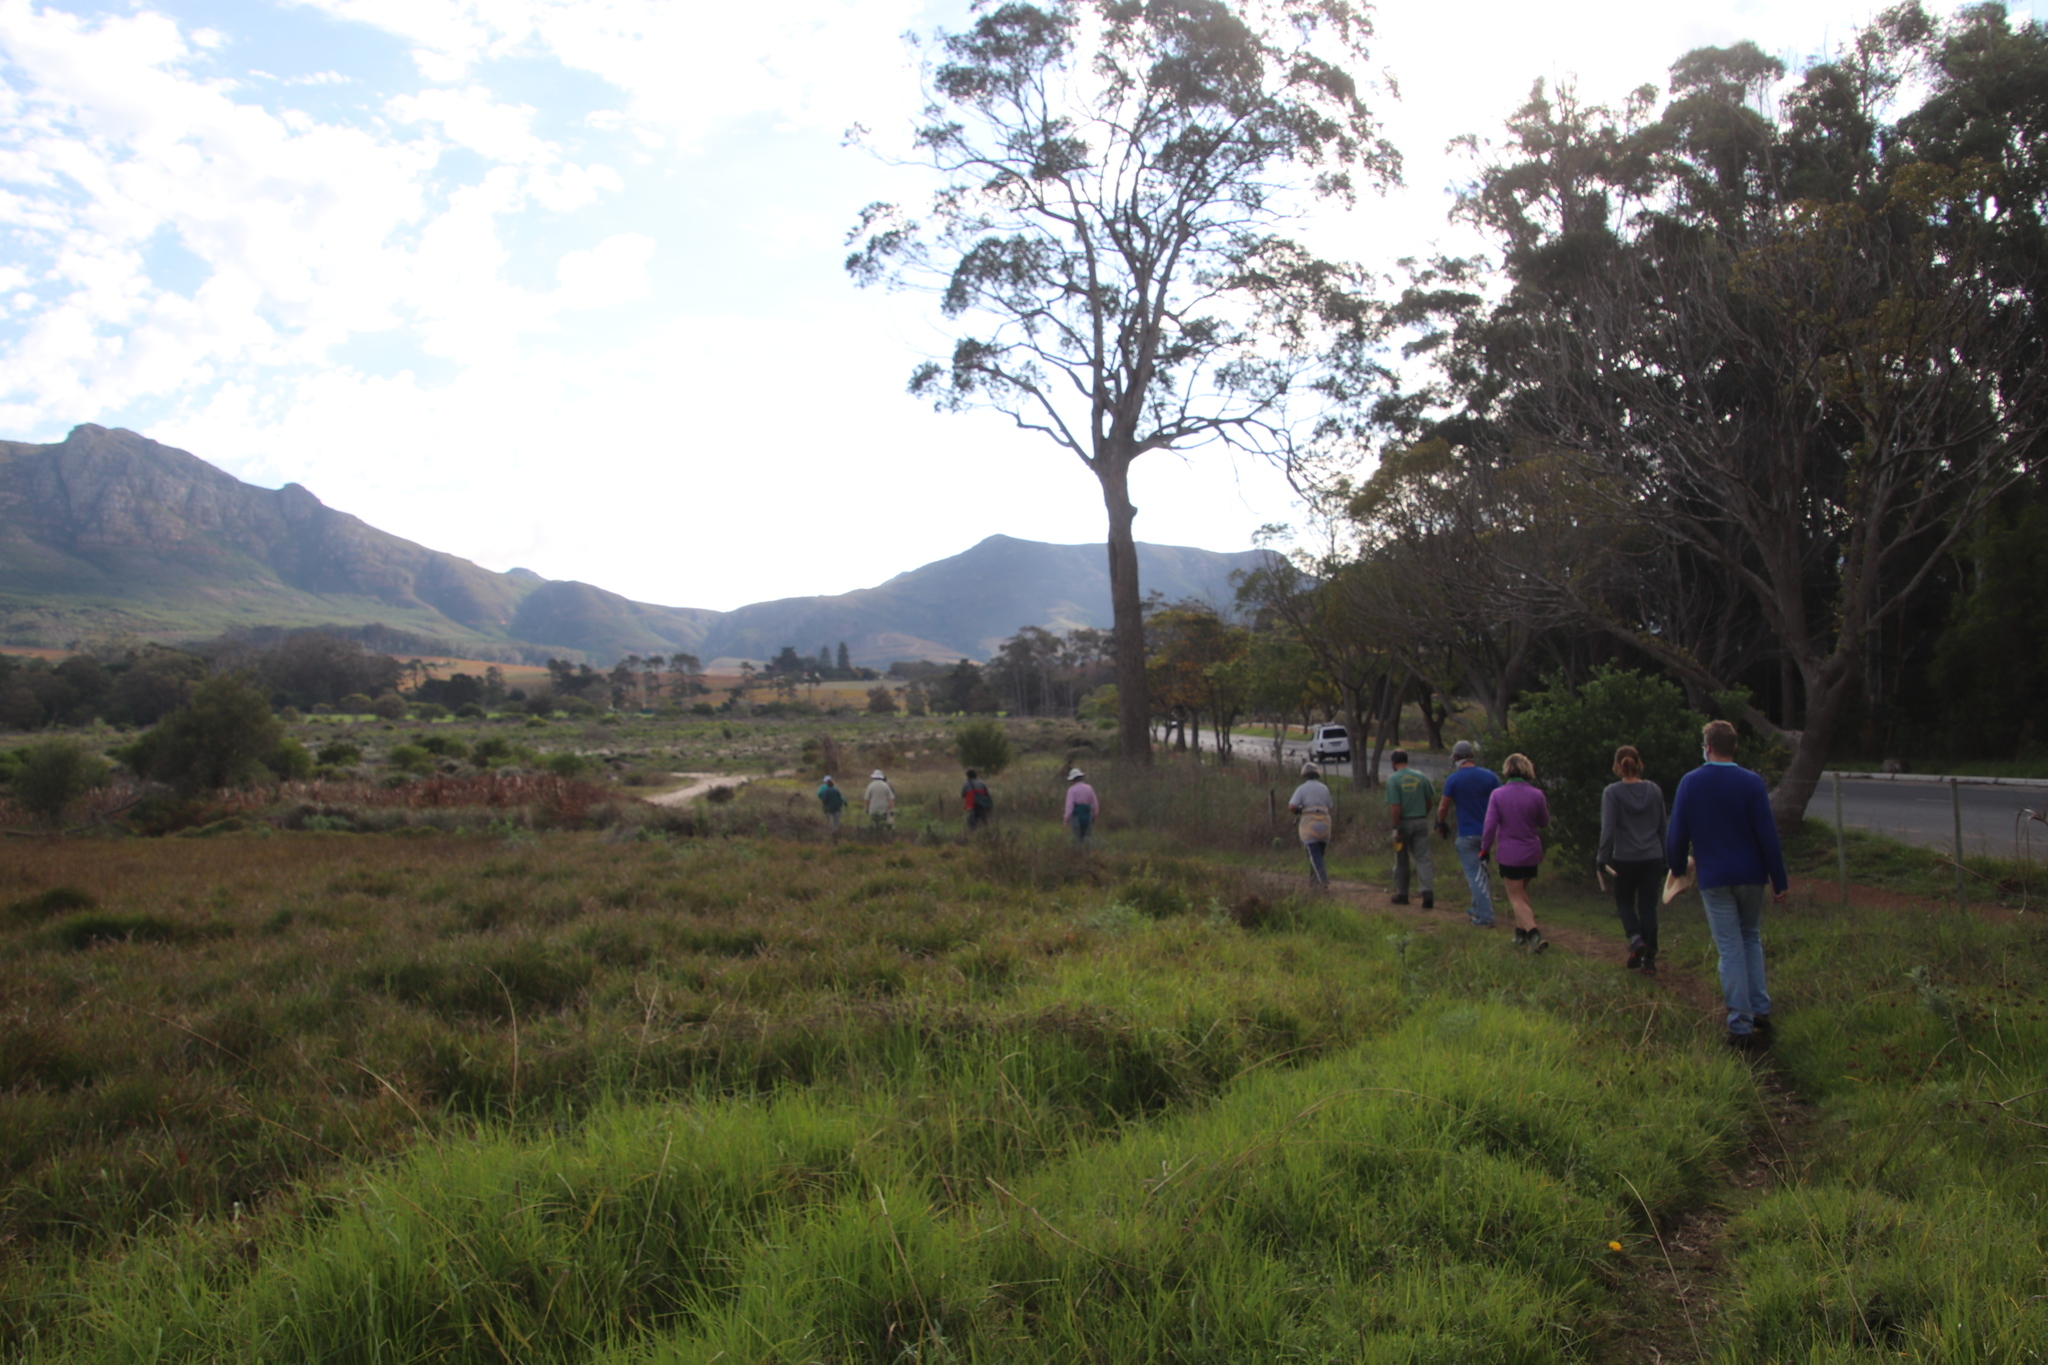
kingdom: Plantae
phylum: Tracheophyta
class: Liliopsida
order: Poales
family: Poaceae
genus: Stenotaphrum
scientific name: Stenotaphrum secundatum
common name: St. augustine grass
